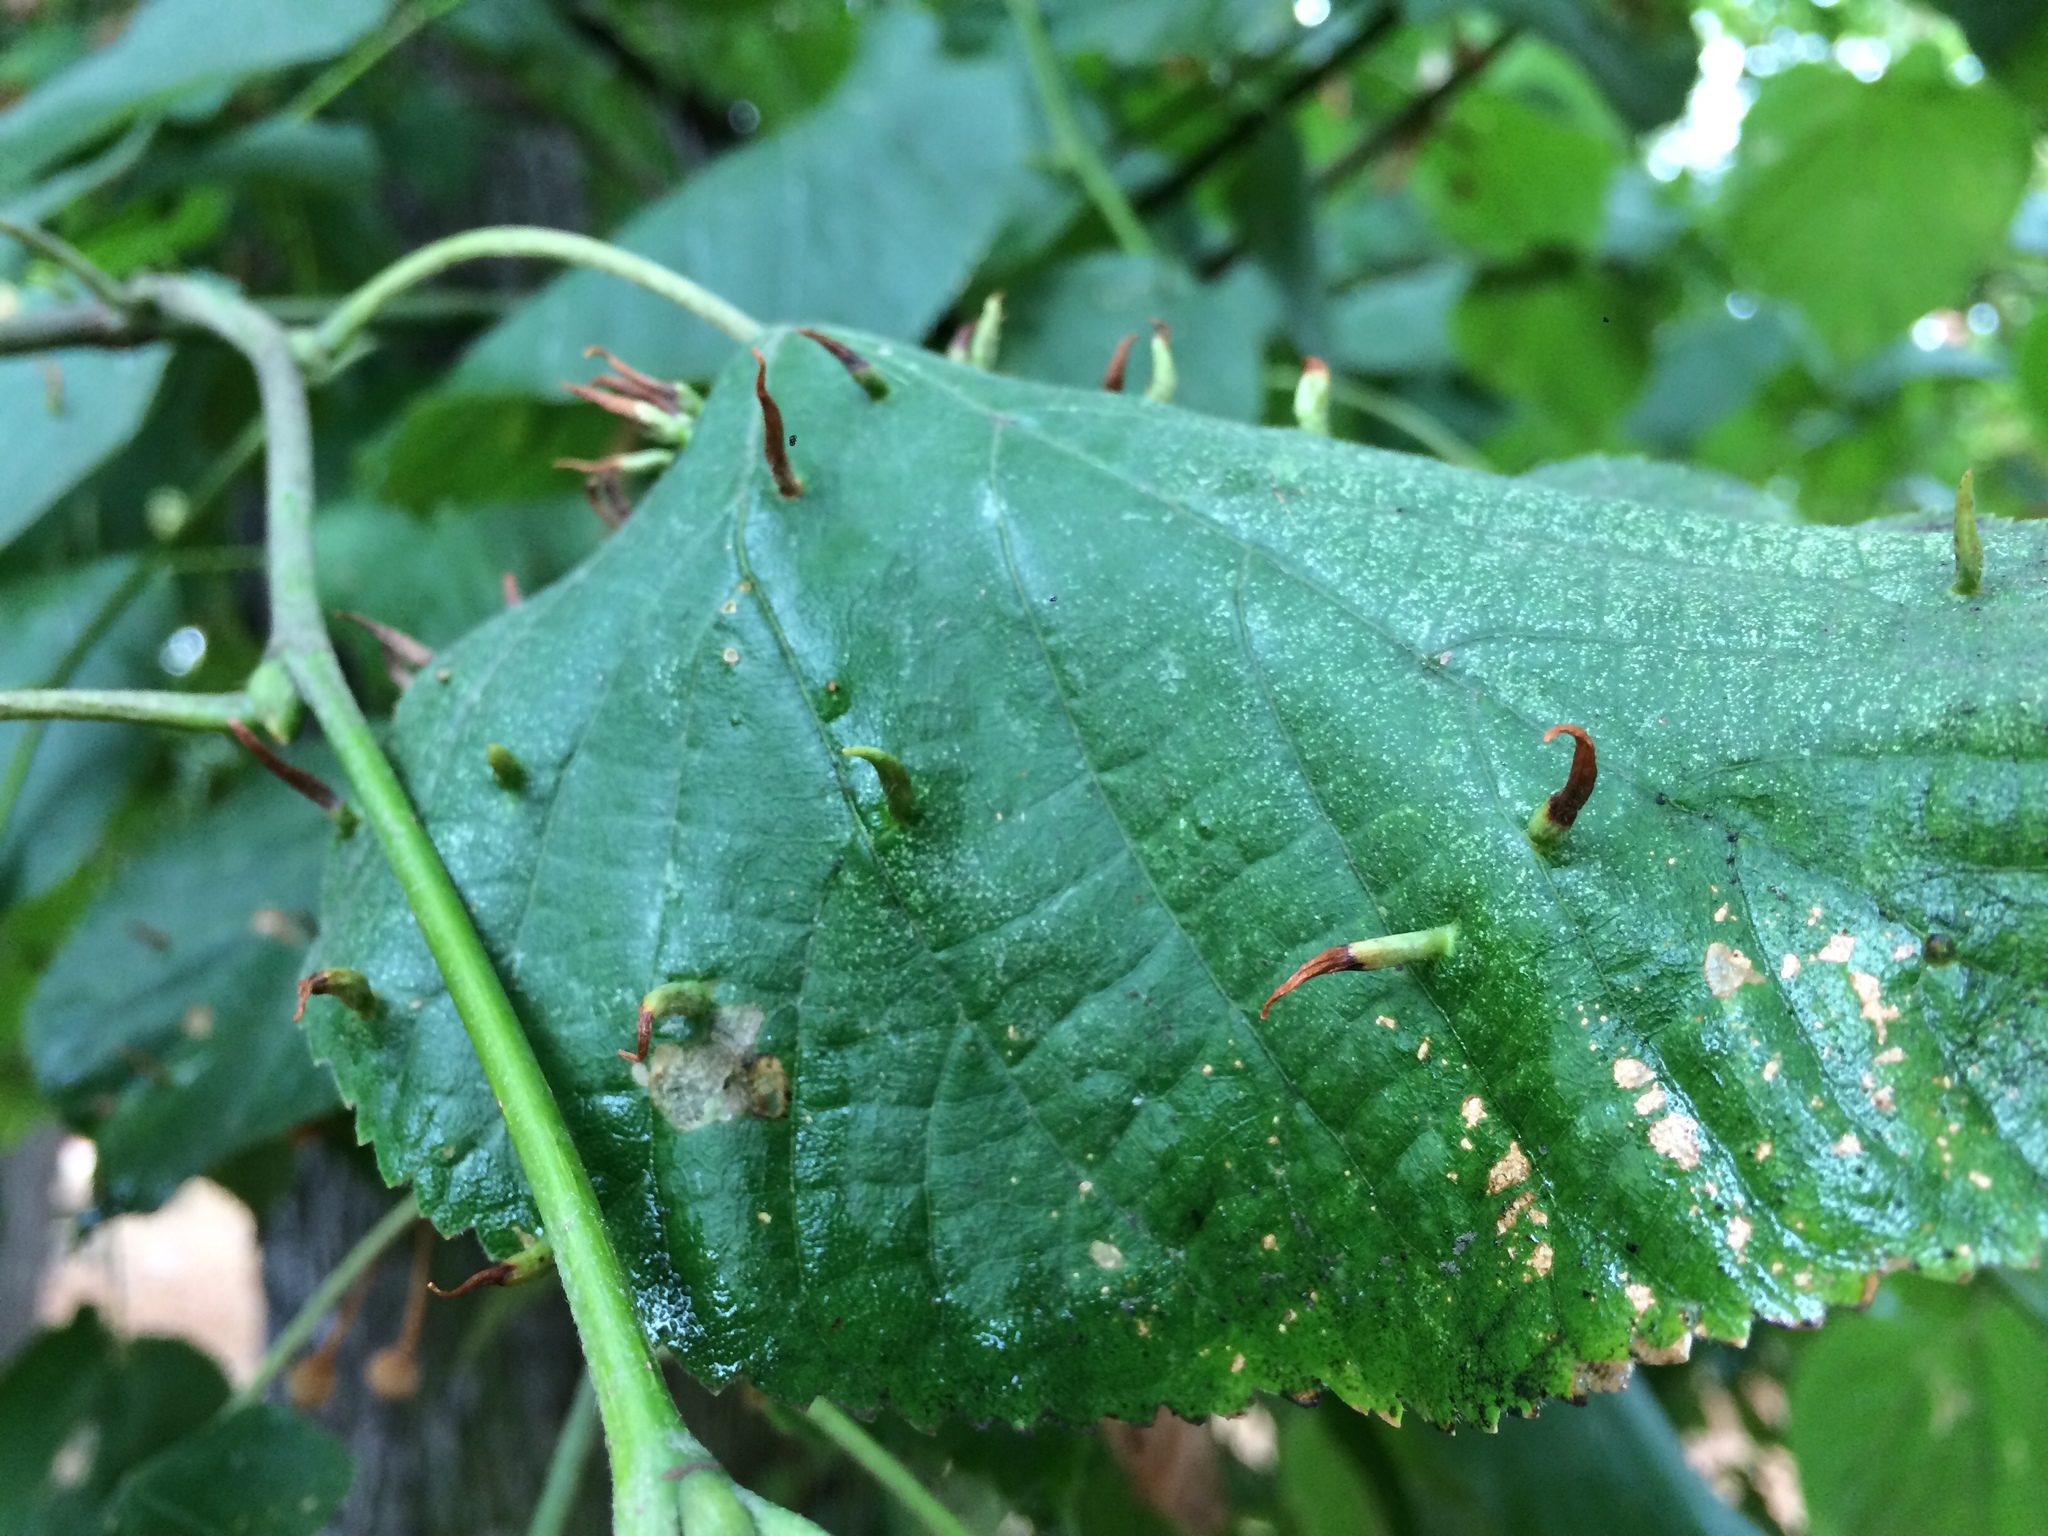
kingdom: Animalia
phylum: Arthropoda
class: Arachnida
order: Trombidiformes
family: Eriophyidae
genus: Eriophyes
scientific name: Eriophyes tiliae
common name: Red nail gall mite
